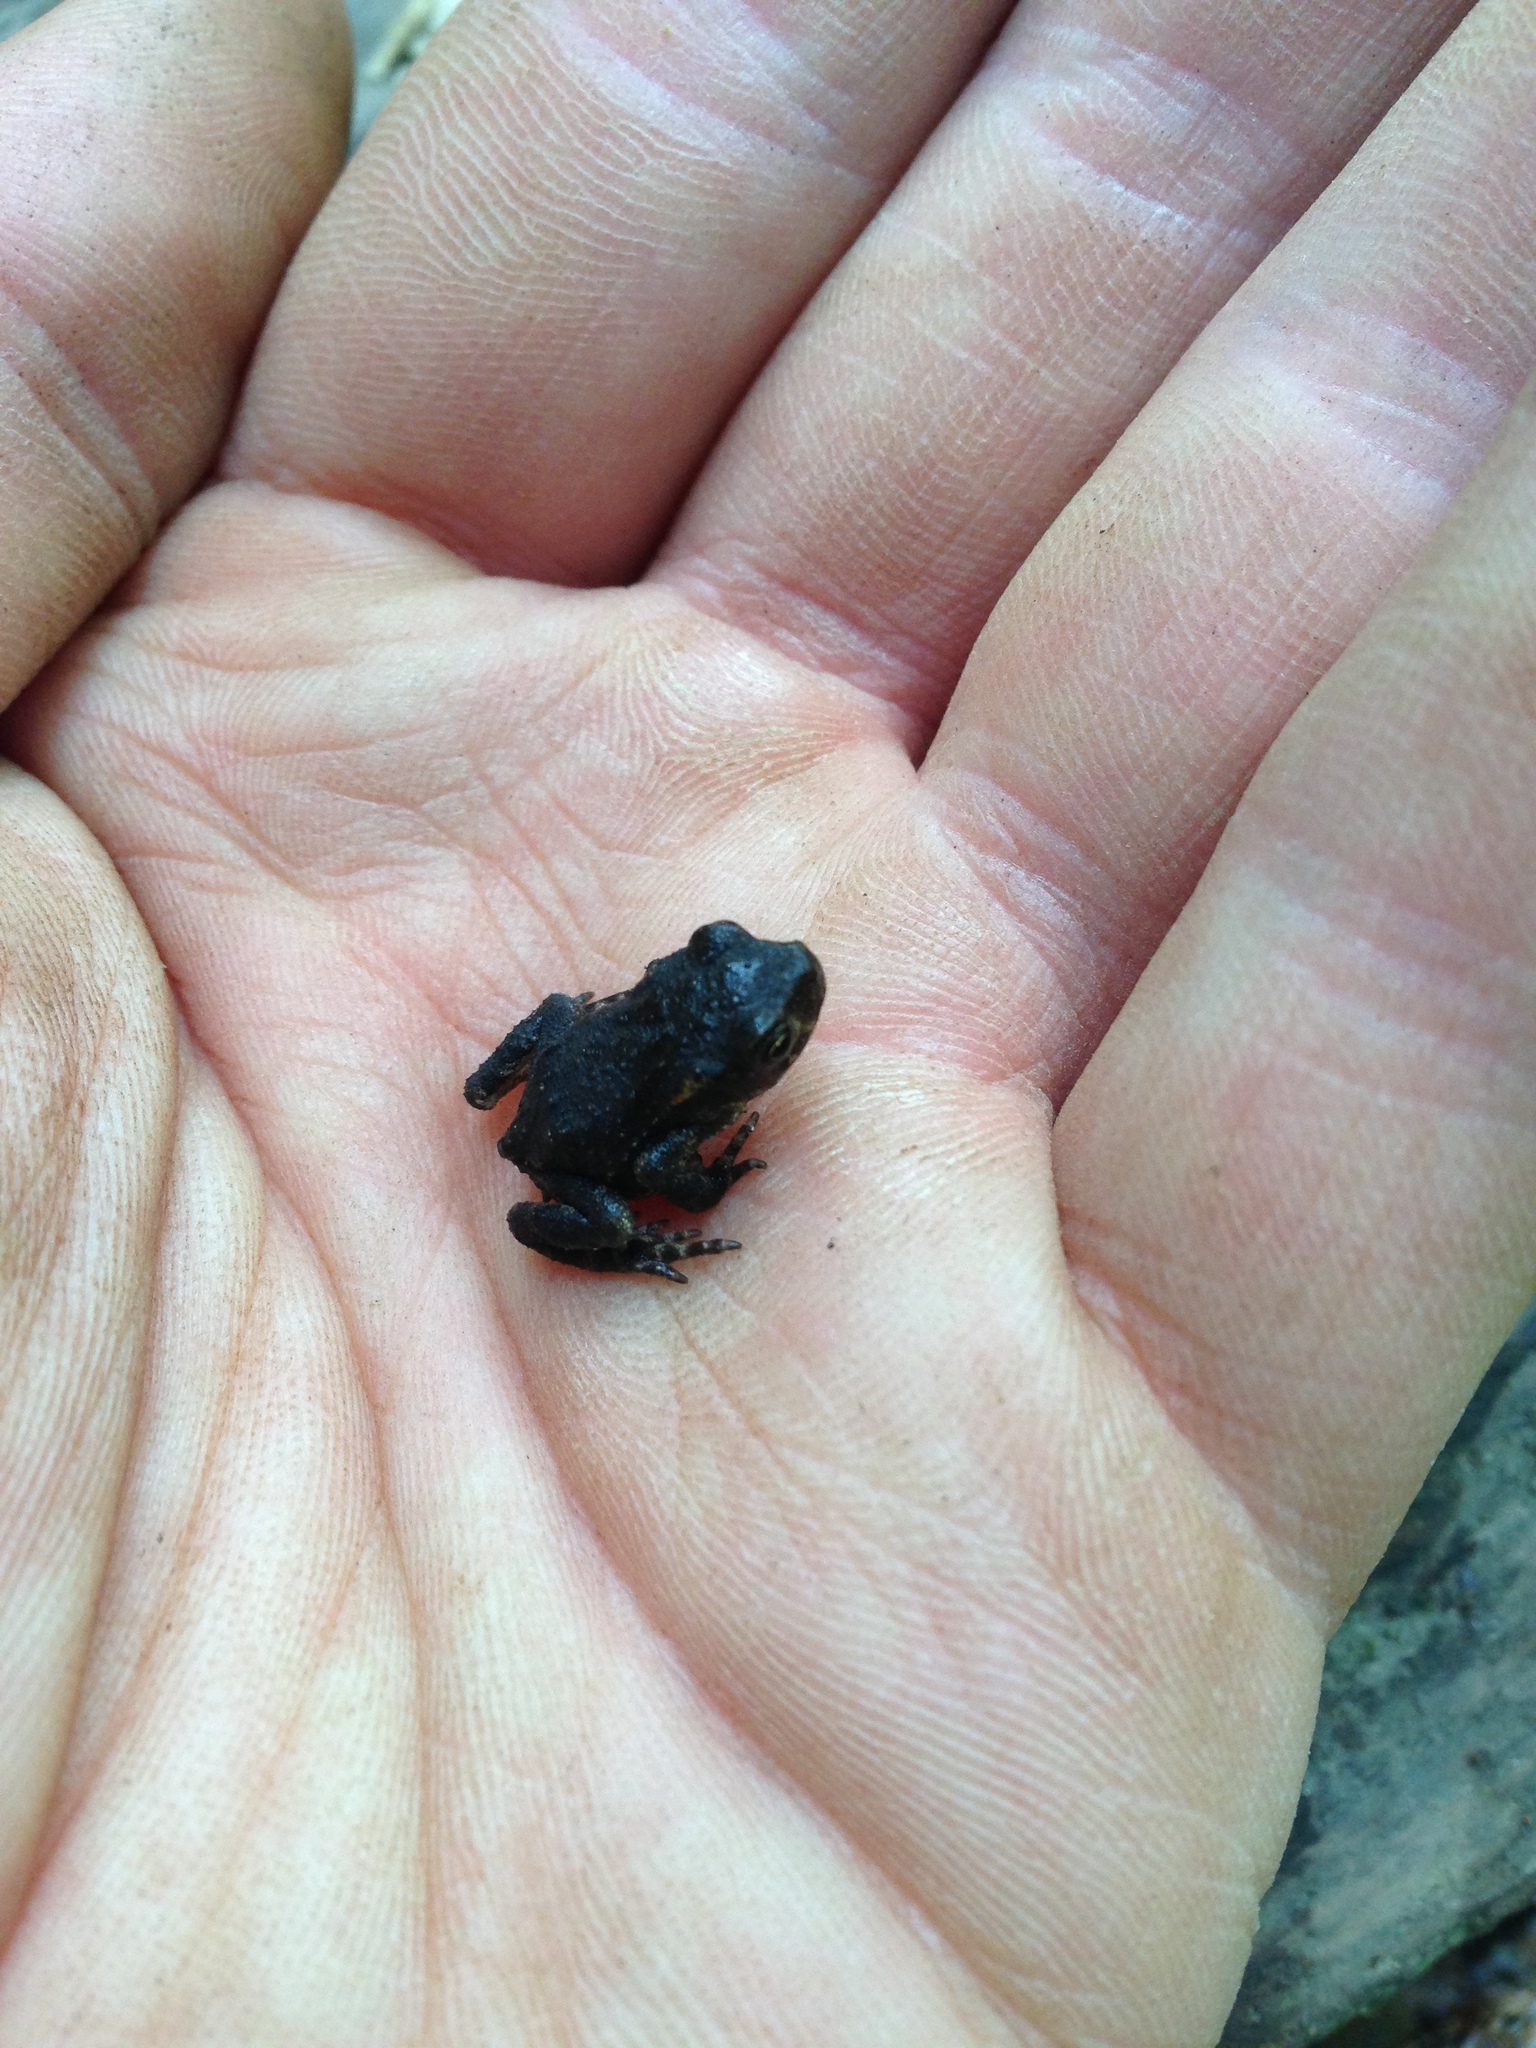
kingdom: Animalia
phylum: Chordata
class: Amphibia
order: Anura
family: Bufonidae
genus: Bufo
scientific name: Bufo spinosus
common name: Western common toad
